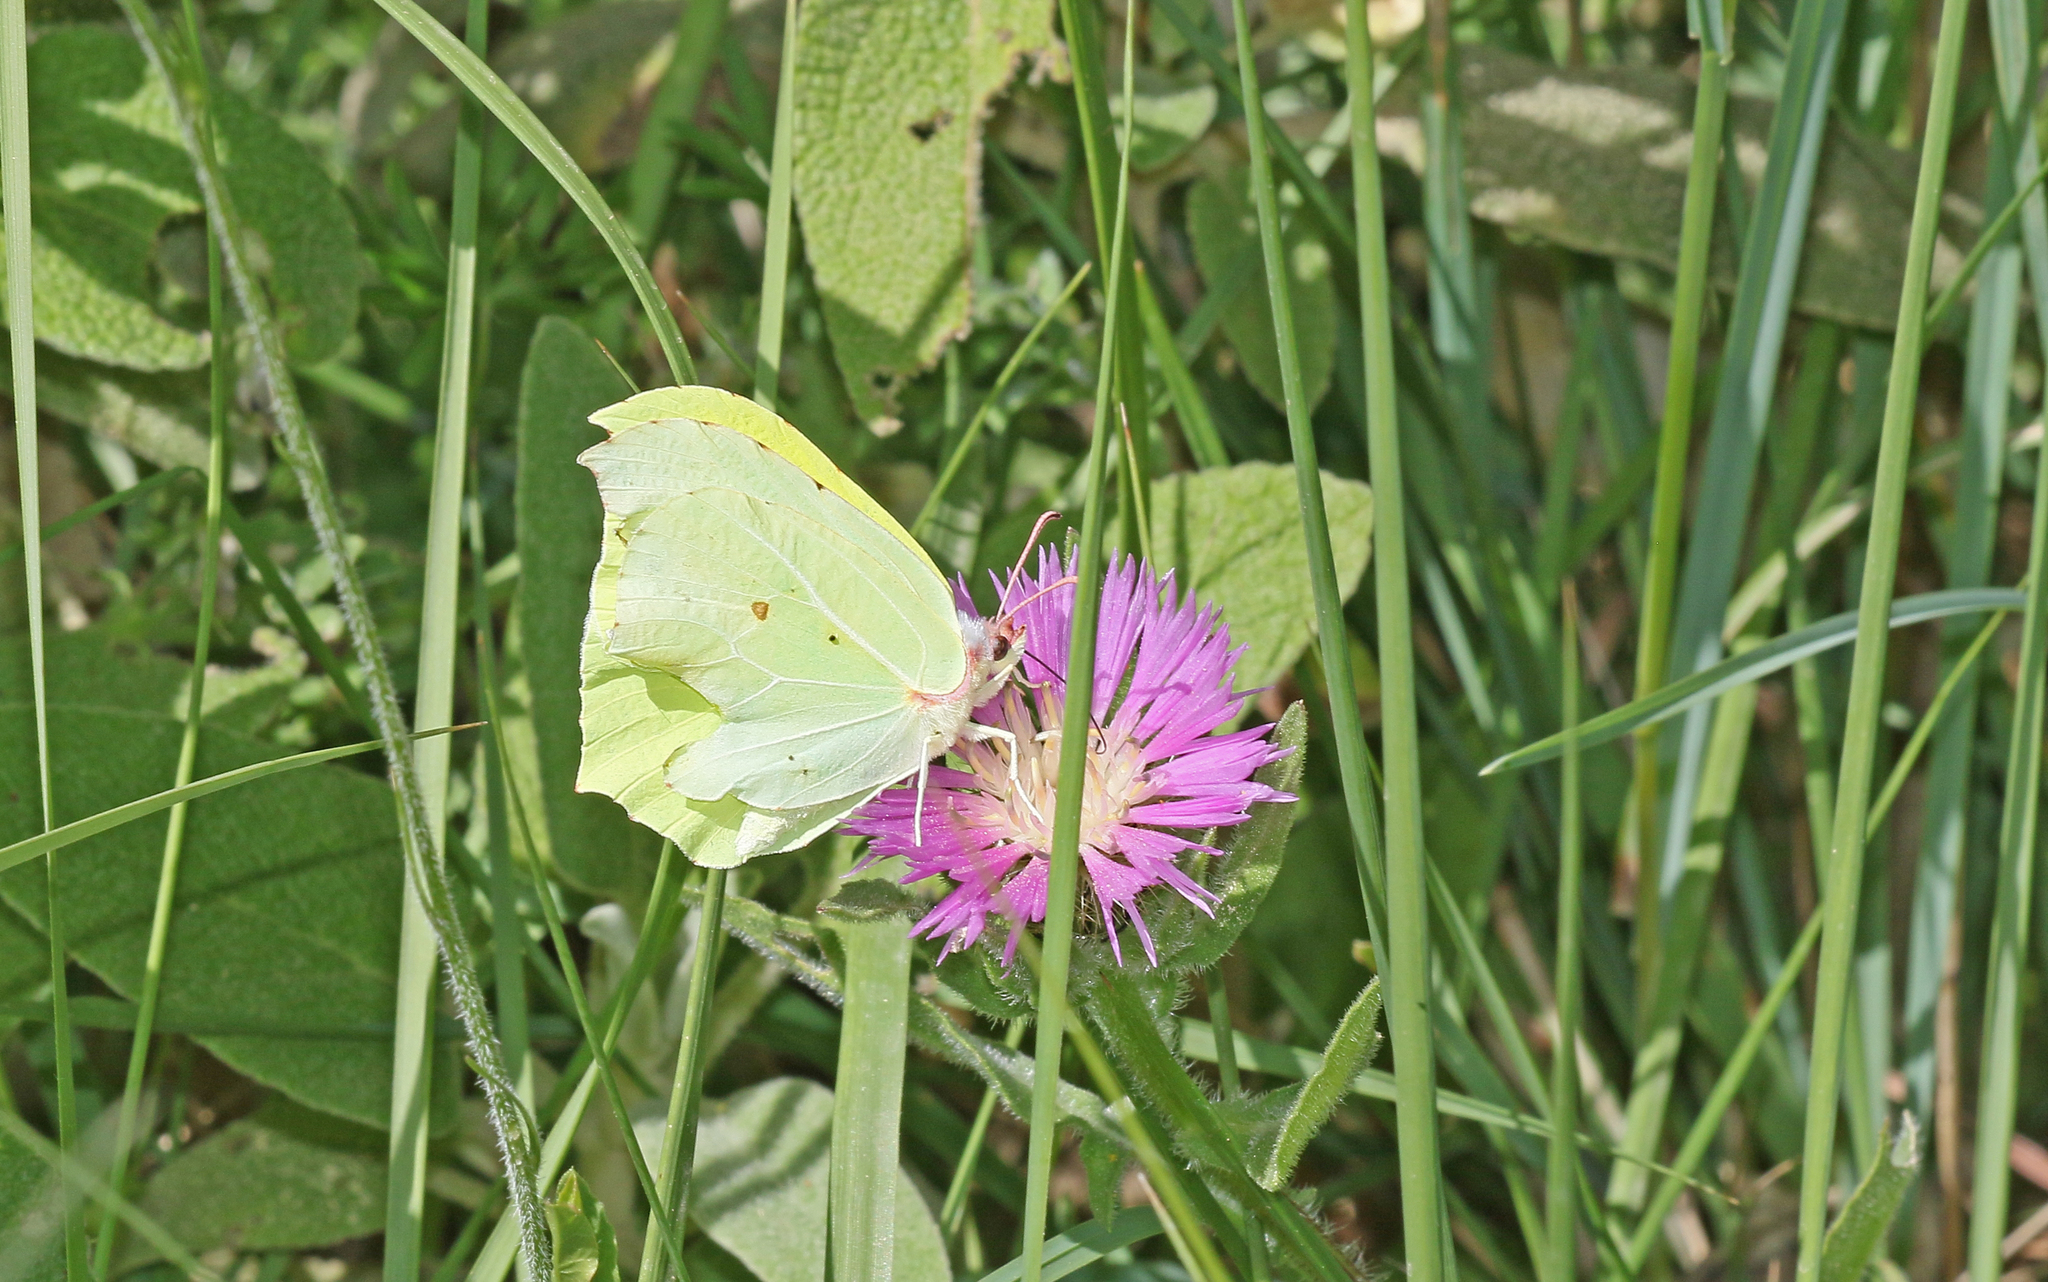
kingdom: Animalia
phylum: Arthropoda
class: Insecta
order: Lepidoptera
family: Pieridae
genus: Gonepteryx
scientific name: Gonepteryx rhamni
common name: Brimstone
